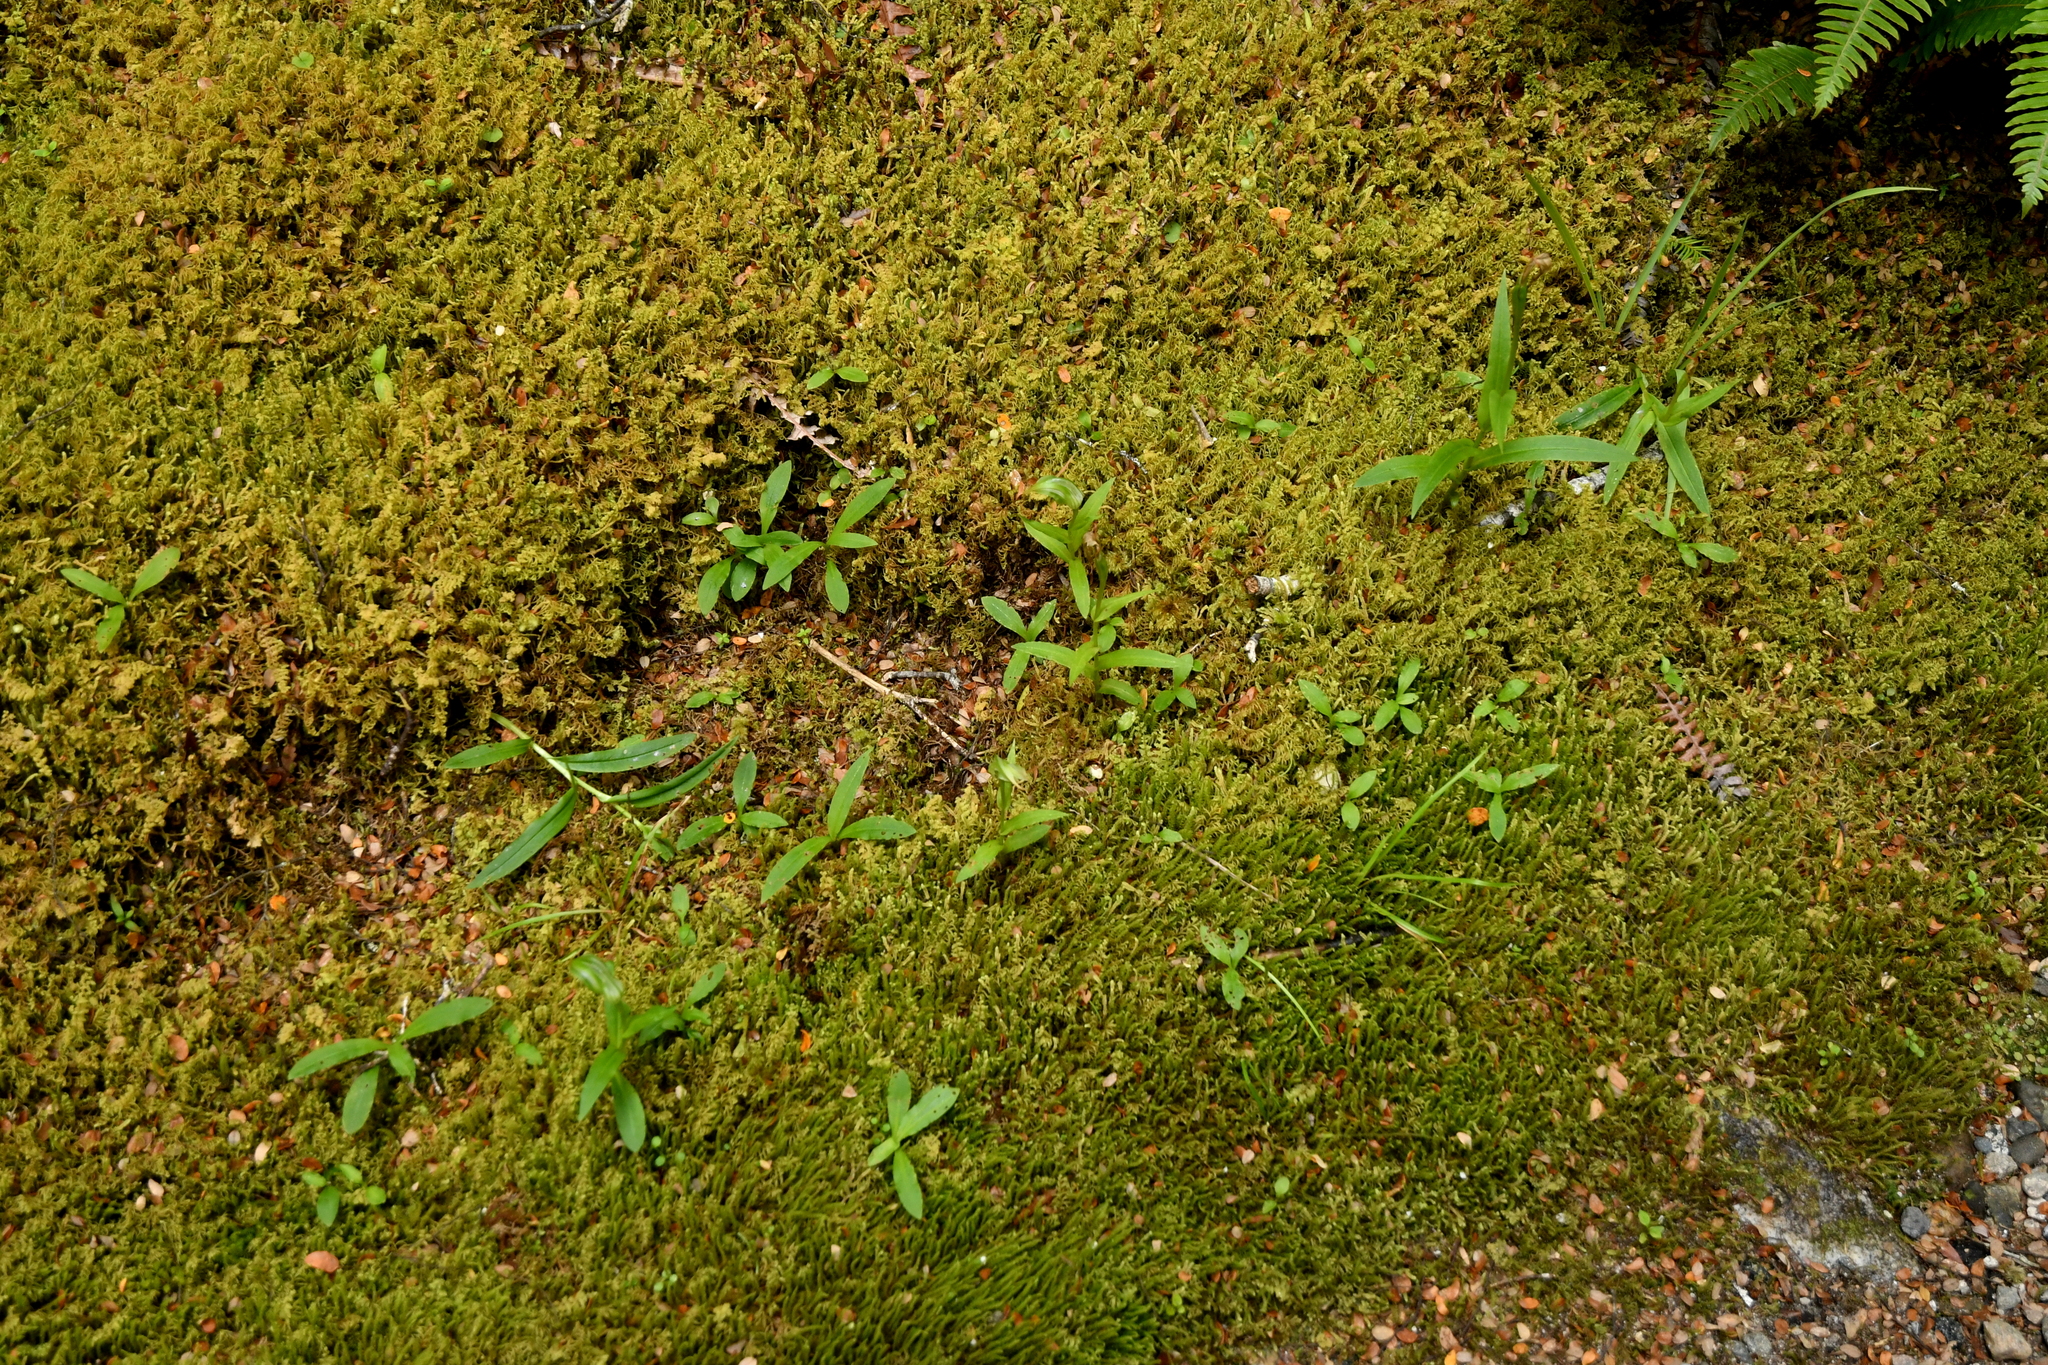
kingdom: Plantae
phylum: Tracheophyta
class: Liliopsida
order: Asparagales
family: Orchidaceae
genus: Pterostylis
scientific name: Pterostylis australis
